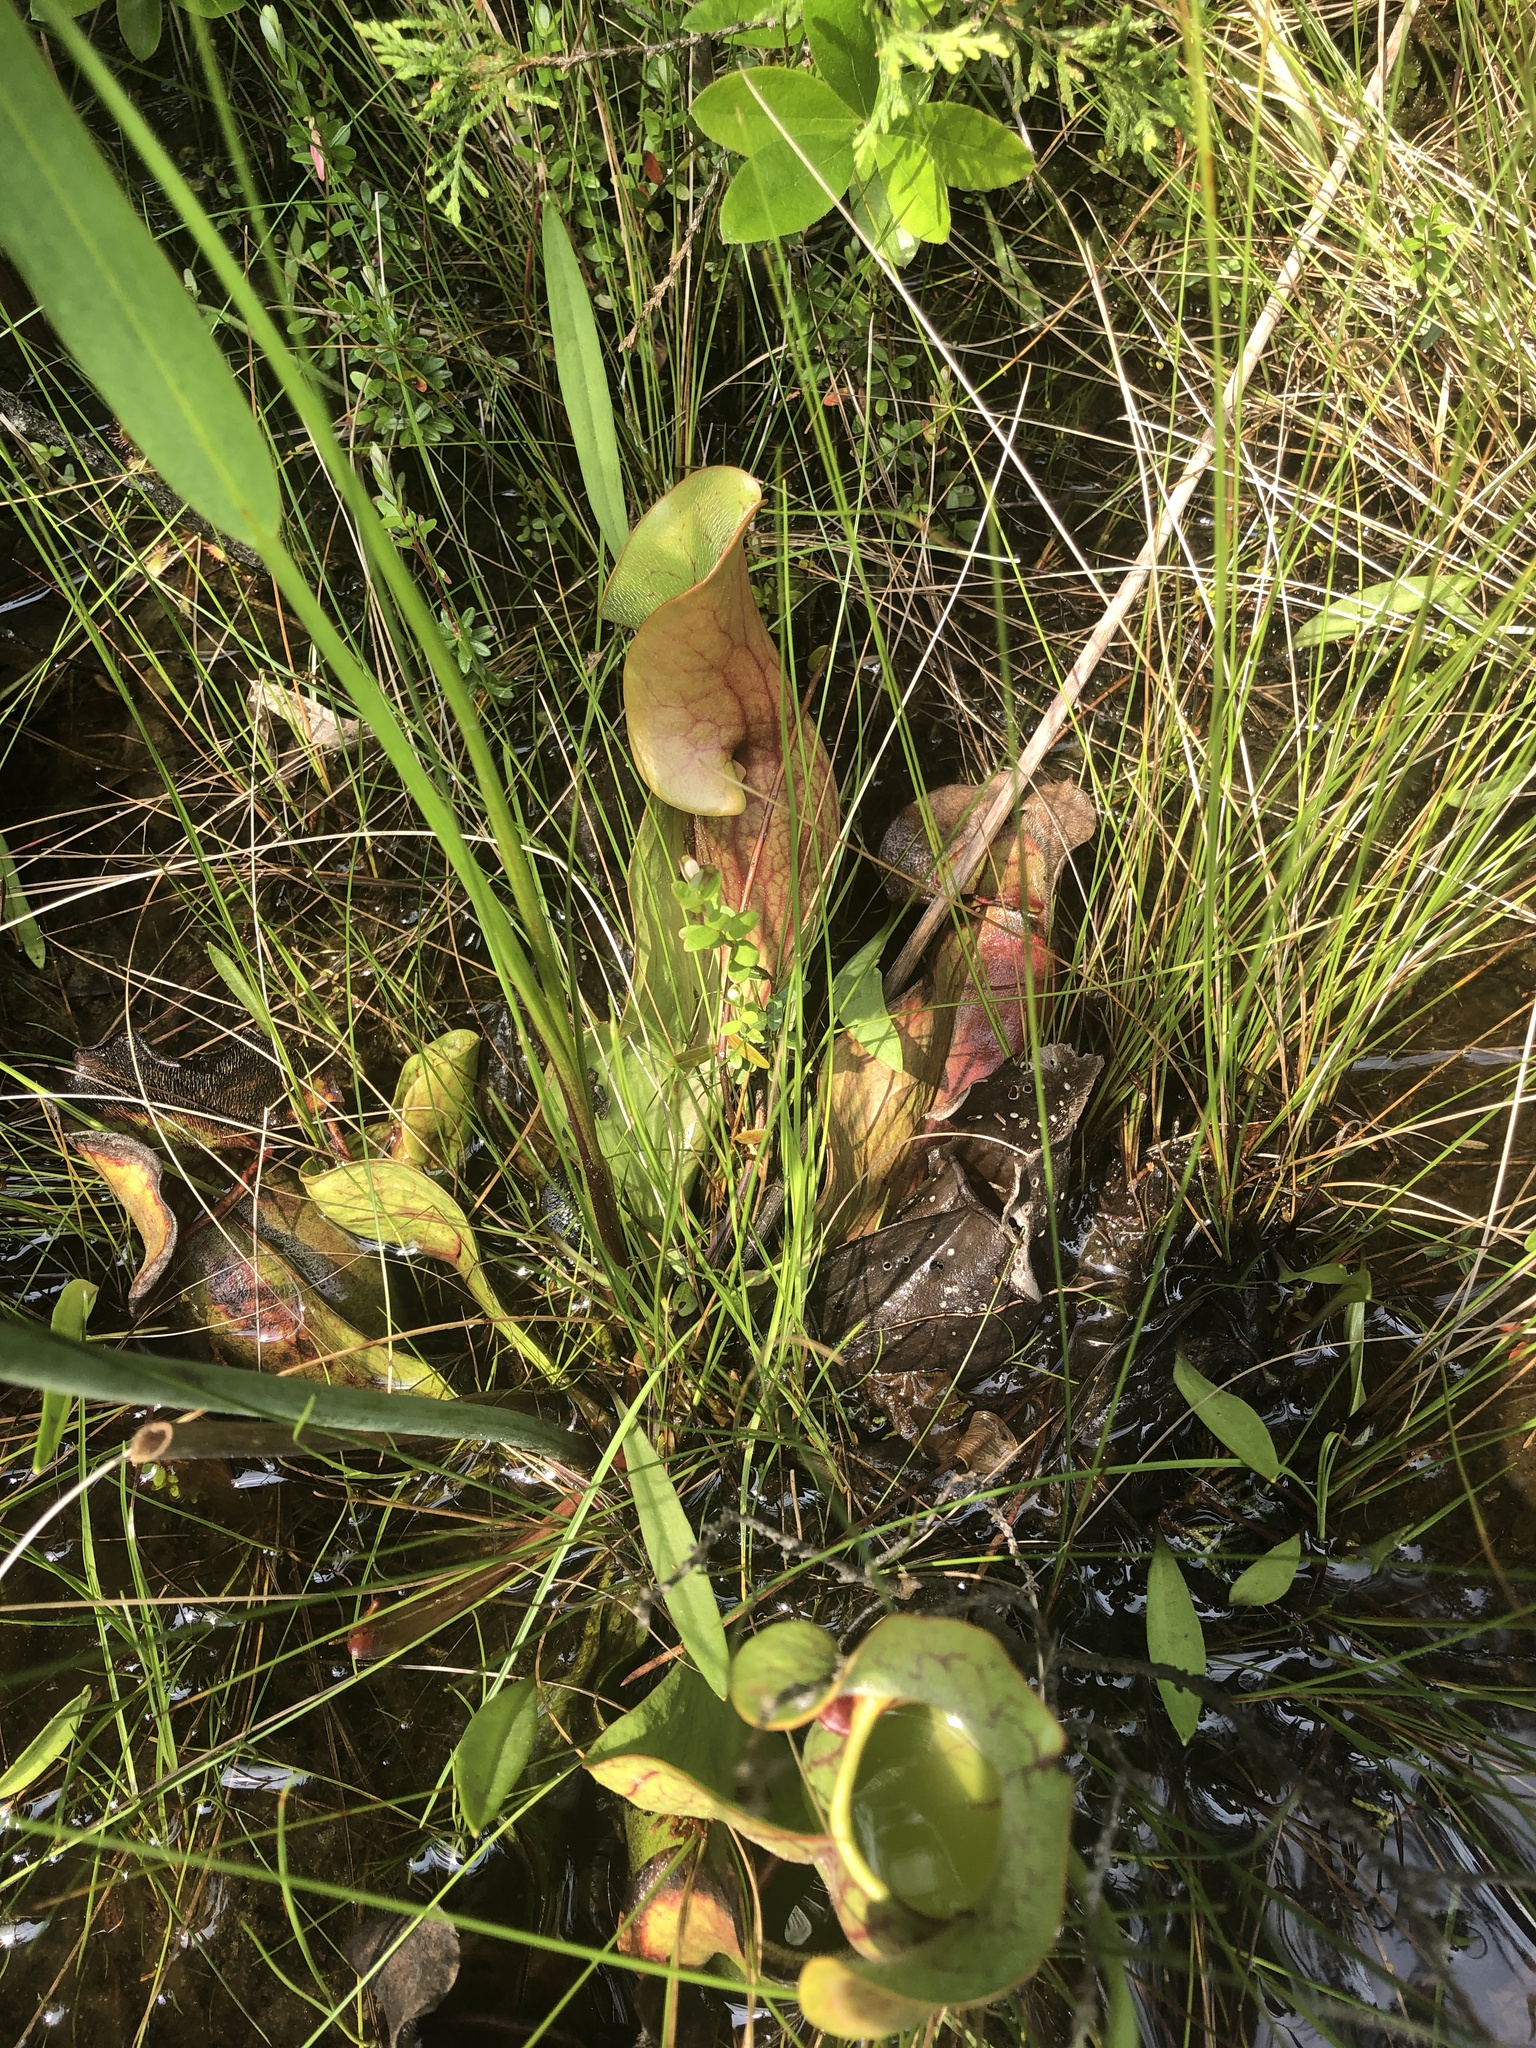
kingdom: Plantae
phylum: Tracheophyta
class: Magnoliopsida
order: Ericales
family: Sarraceniaceae
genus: Sarracenia
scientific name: Sarracenia purpurea
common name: Pitcherplant
